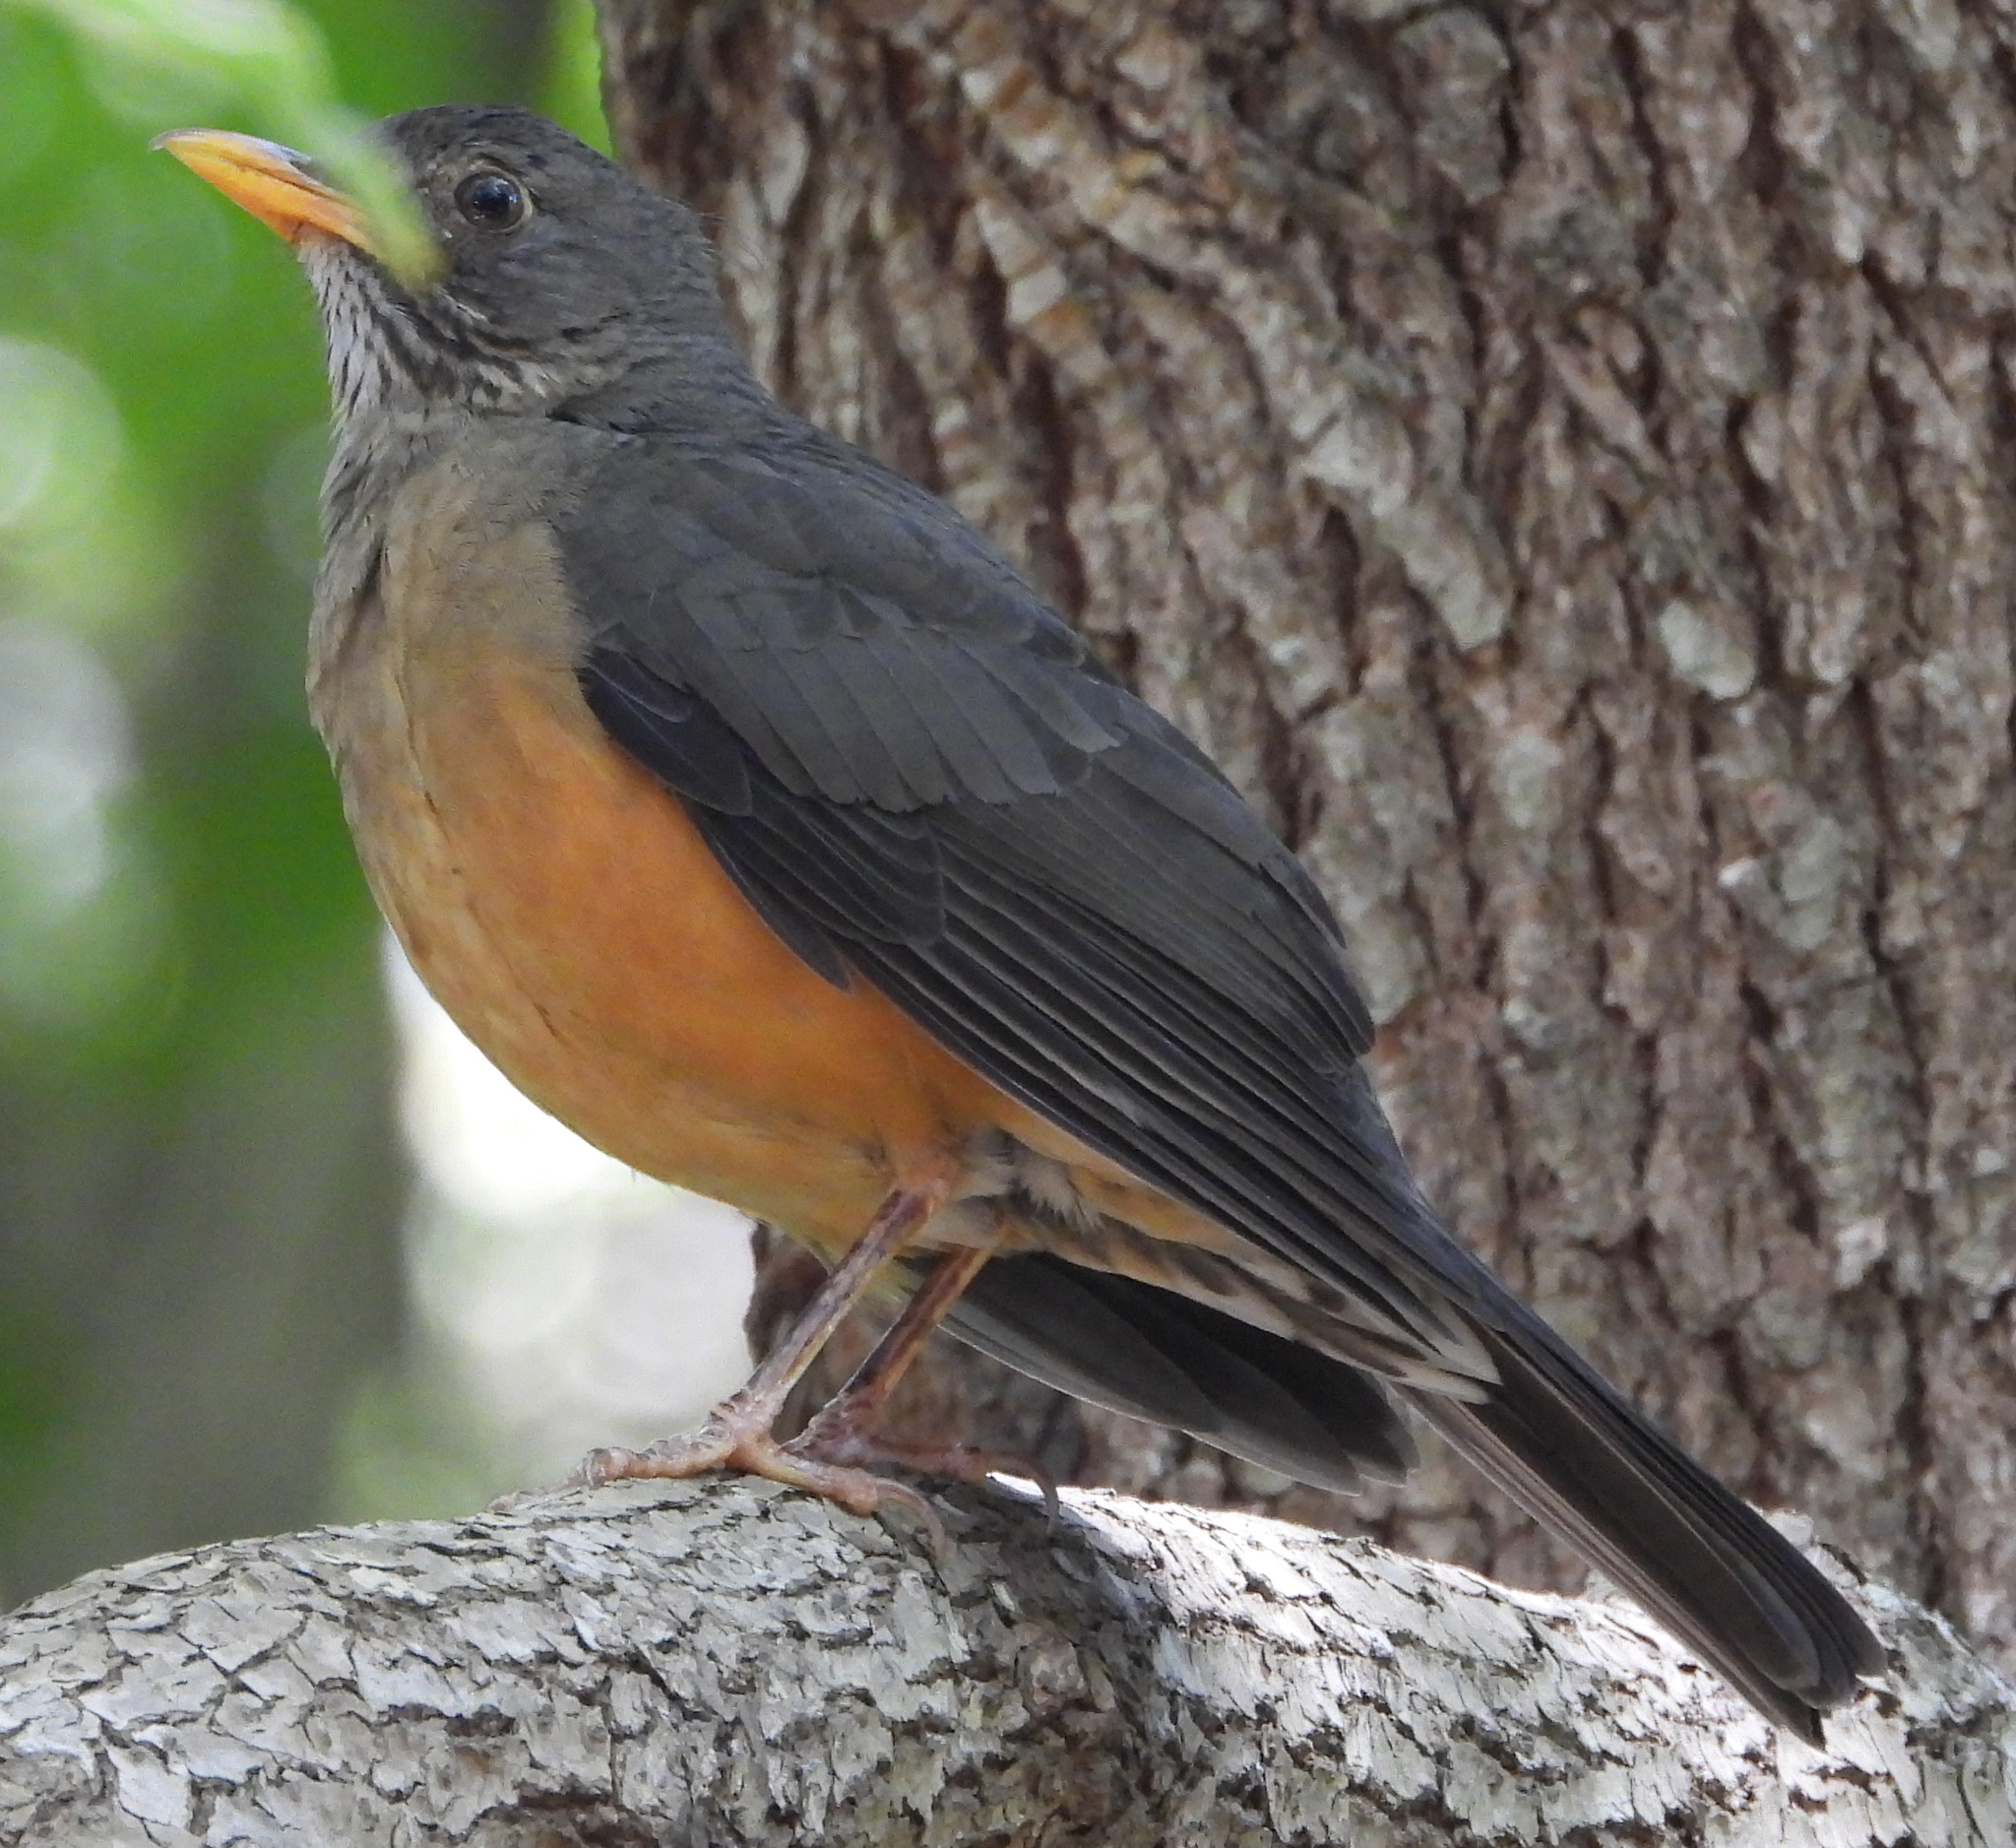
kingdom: Animalia
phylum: Chordata
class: Aves
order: Passeriformes
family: Turdidae
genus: Turdus
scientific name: Turdus olivaceus
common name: Olive thrush
